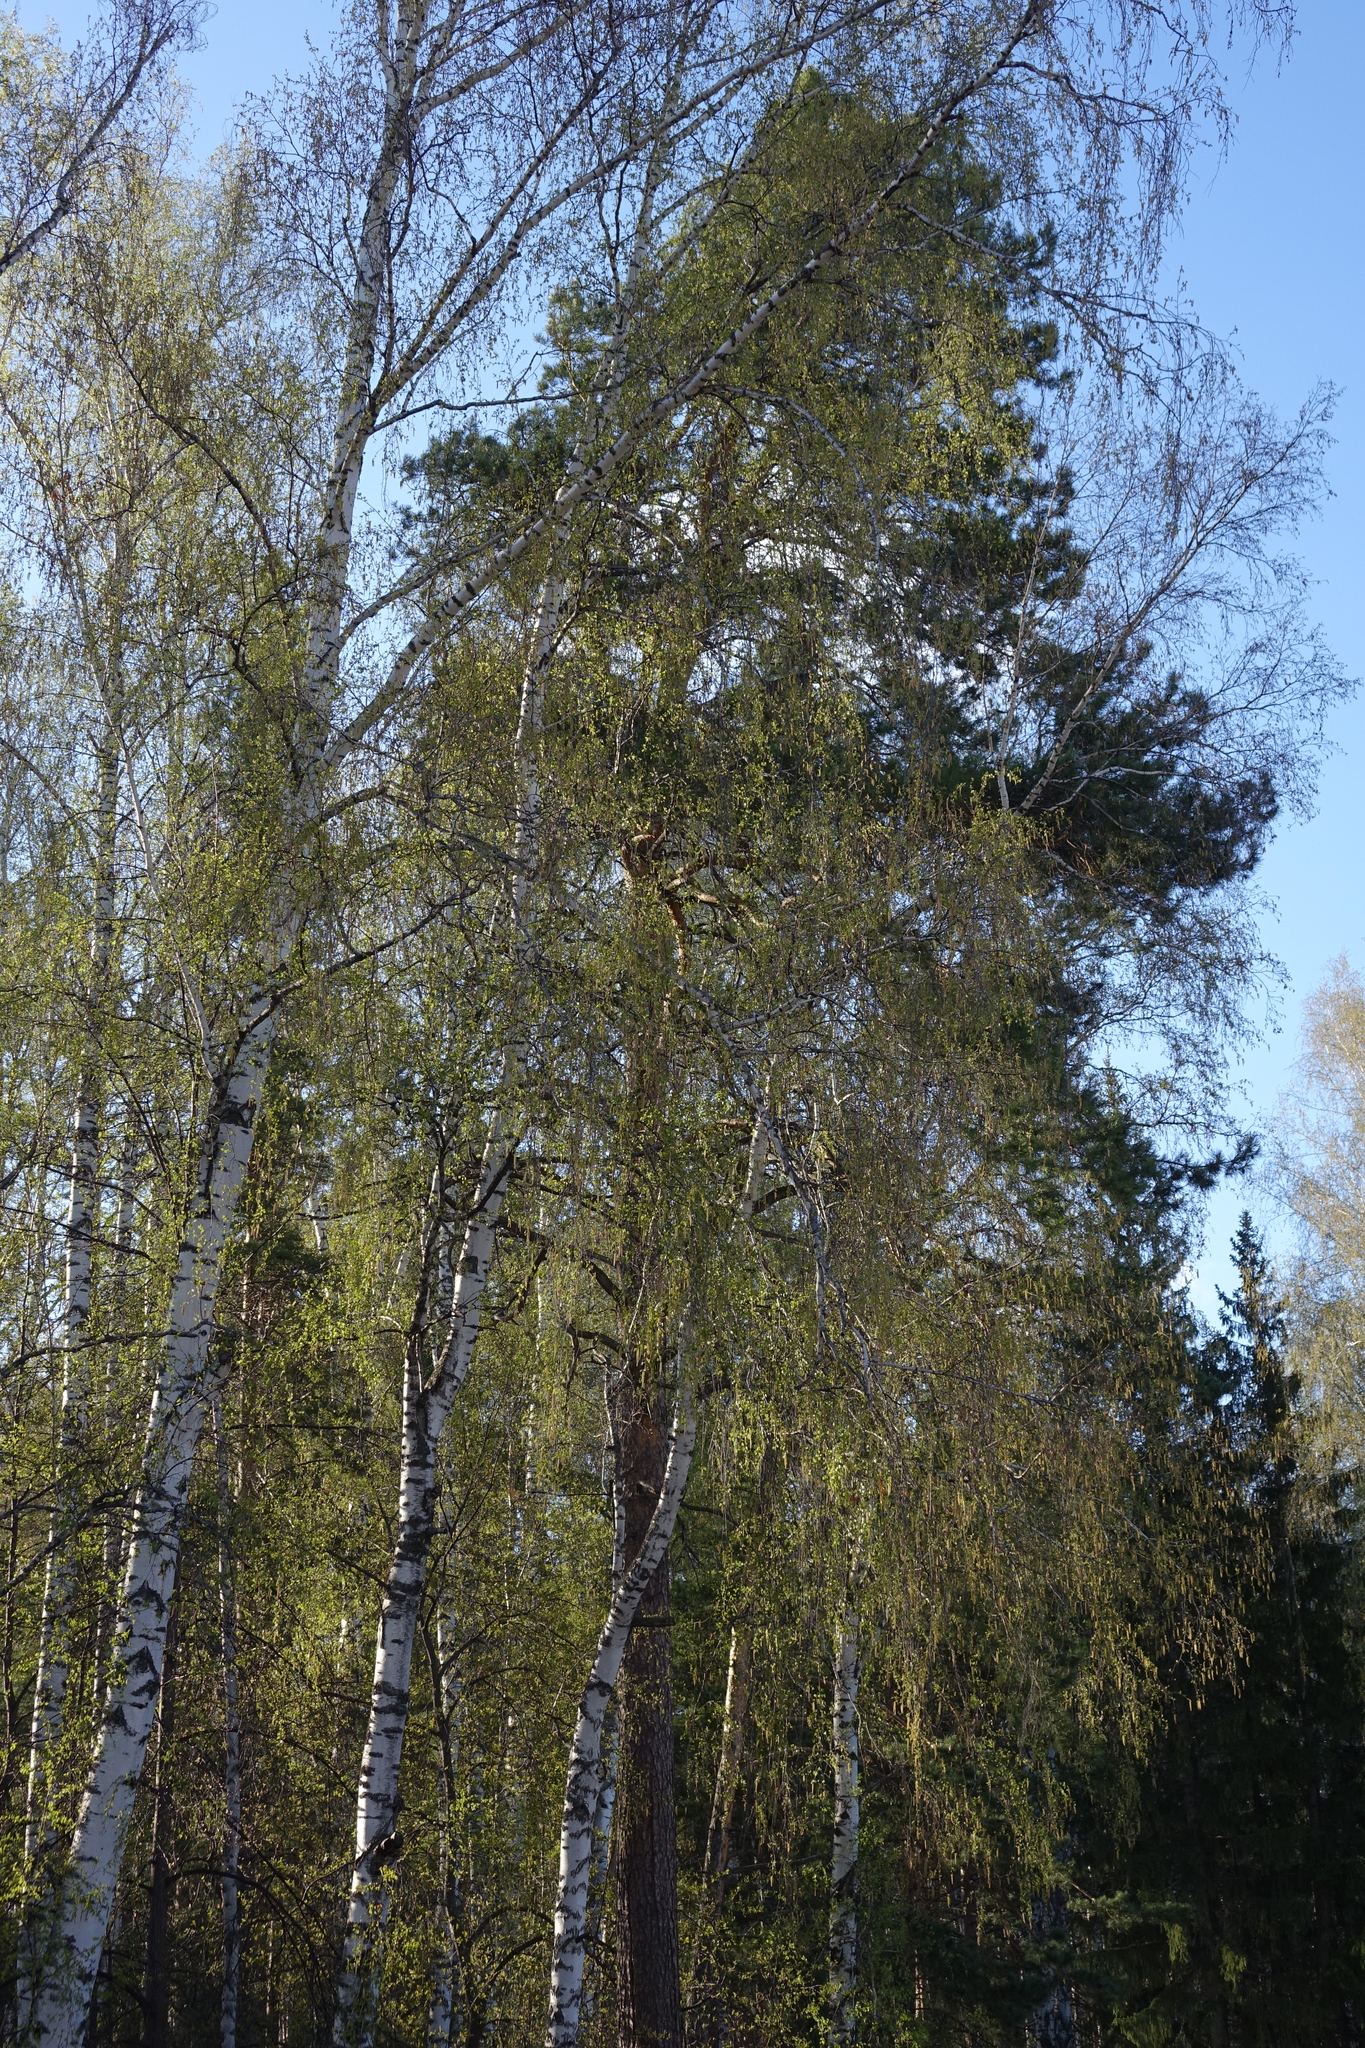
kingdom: Plantae
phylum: Tracheophyta
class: Magnoliopsida
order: Fagales
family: Betulaceae
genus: Betula
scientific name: Betula pendula
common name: Silver birch
